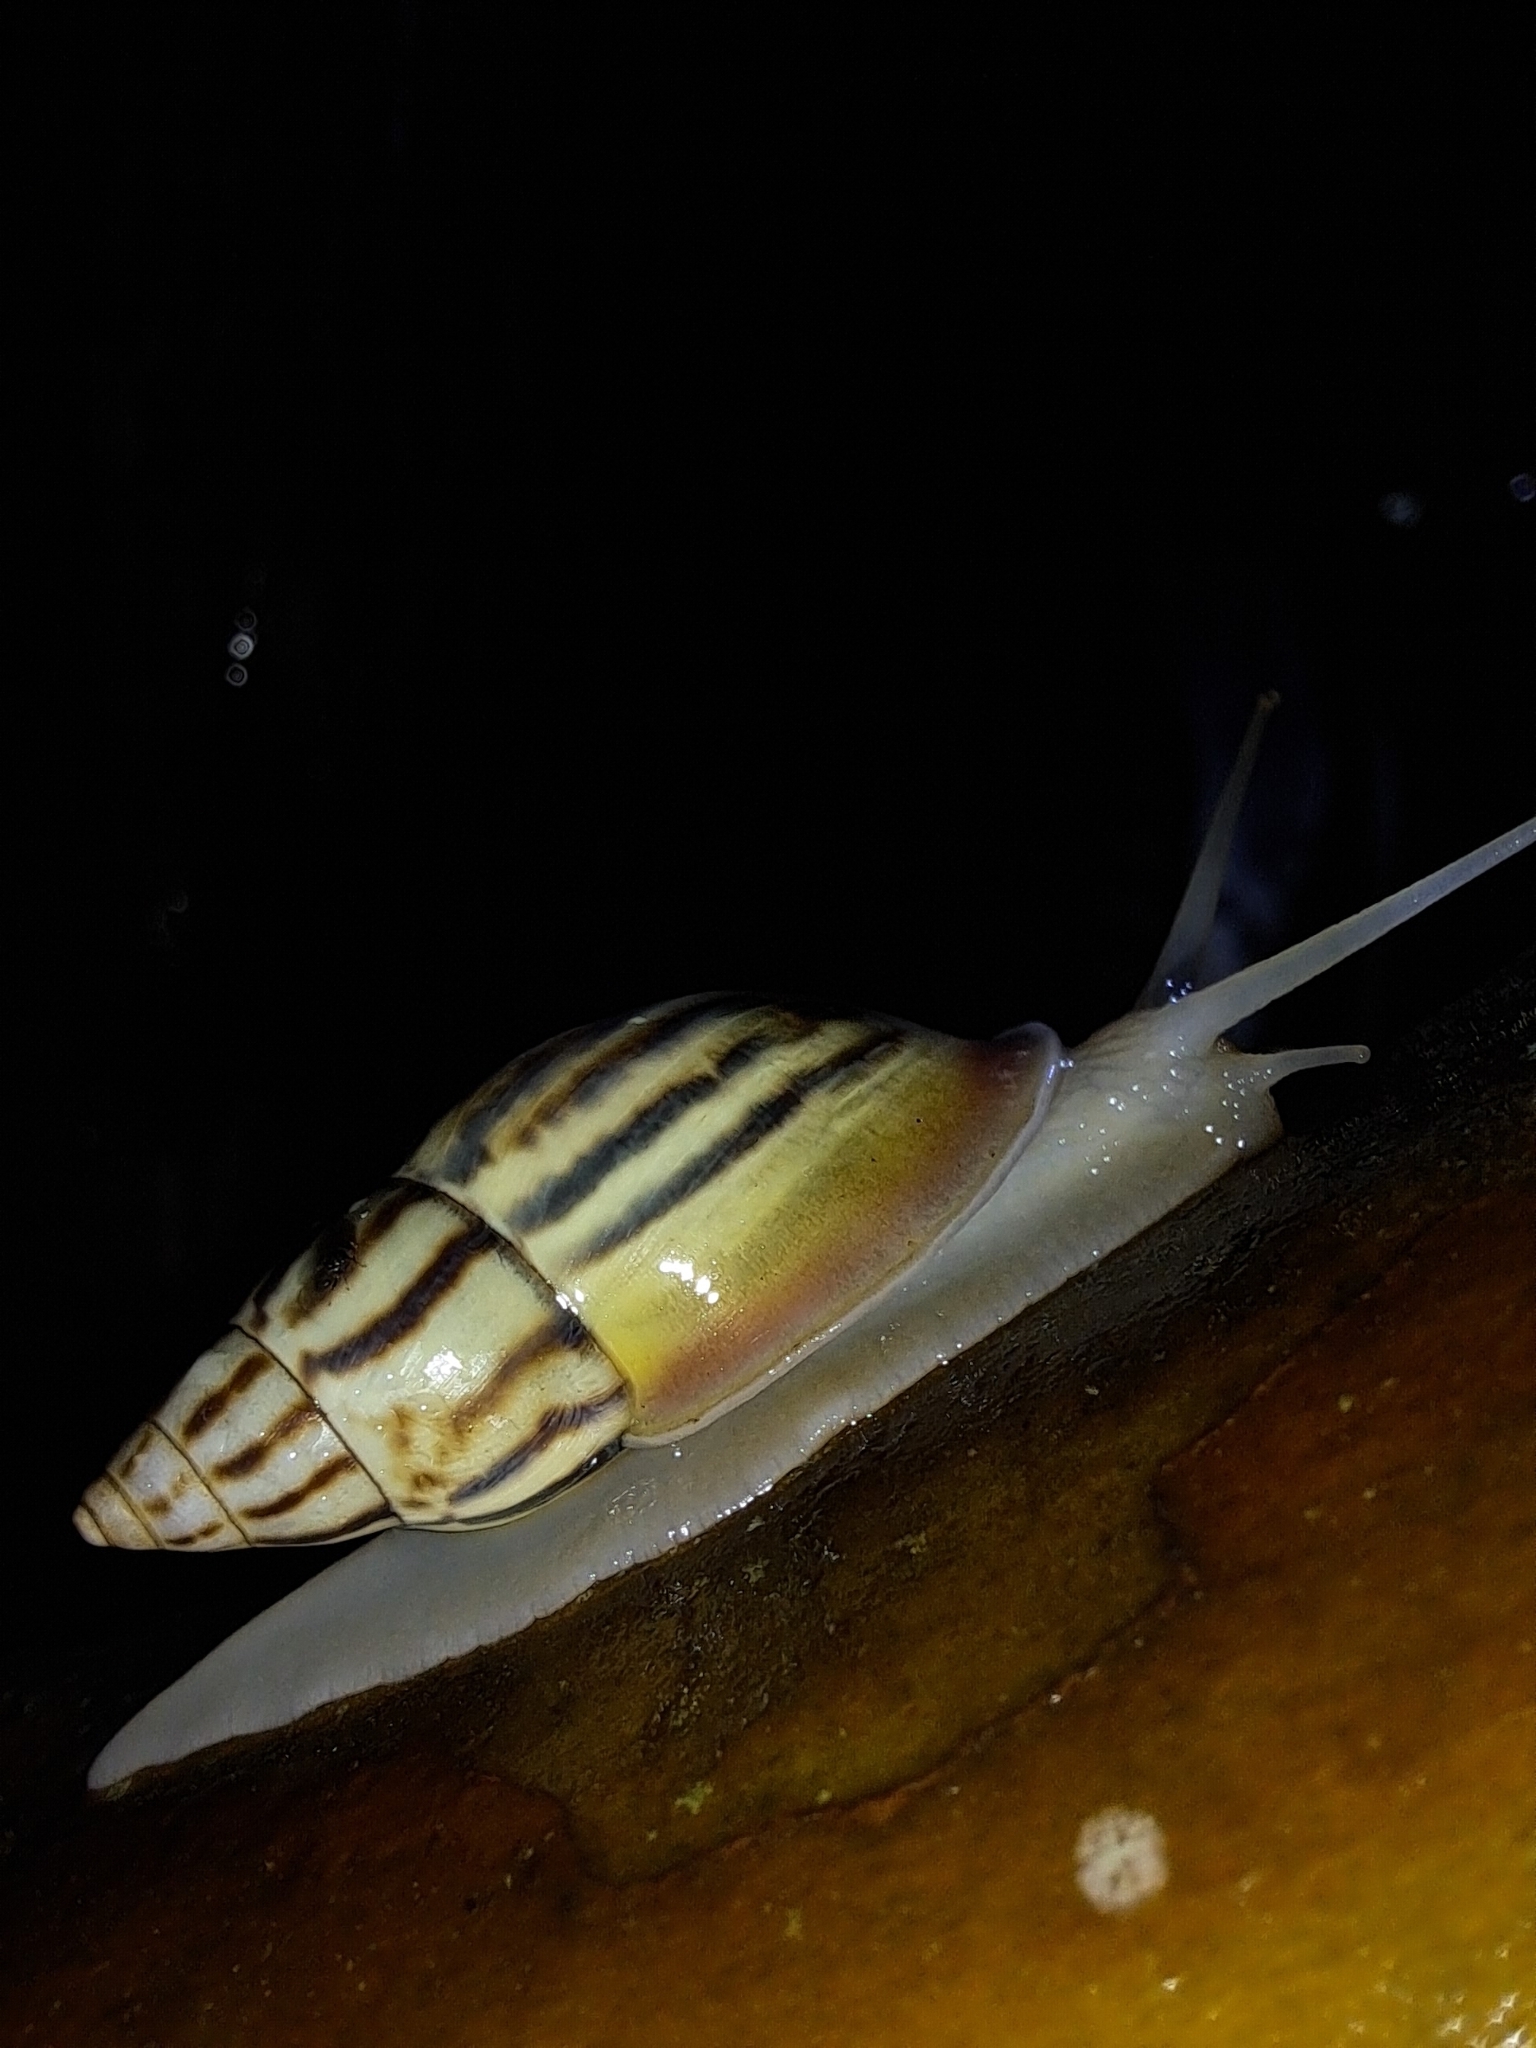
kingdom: Animalia
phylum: Mollusca
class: Gastropoda
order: Stylommatophora
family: Bulimulidae
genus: Drymaeus
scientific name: Drymaeus aequatorianus
